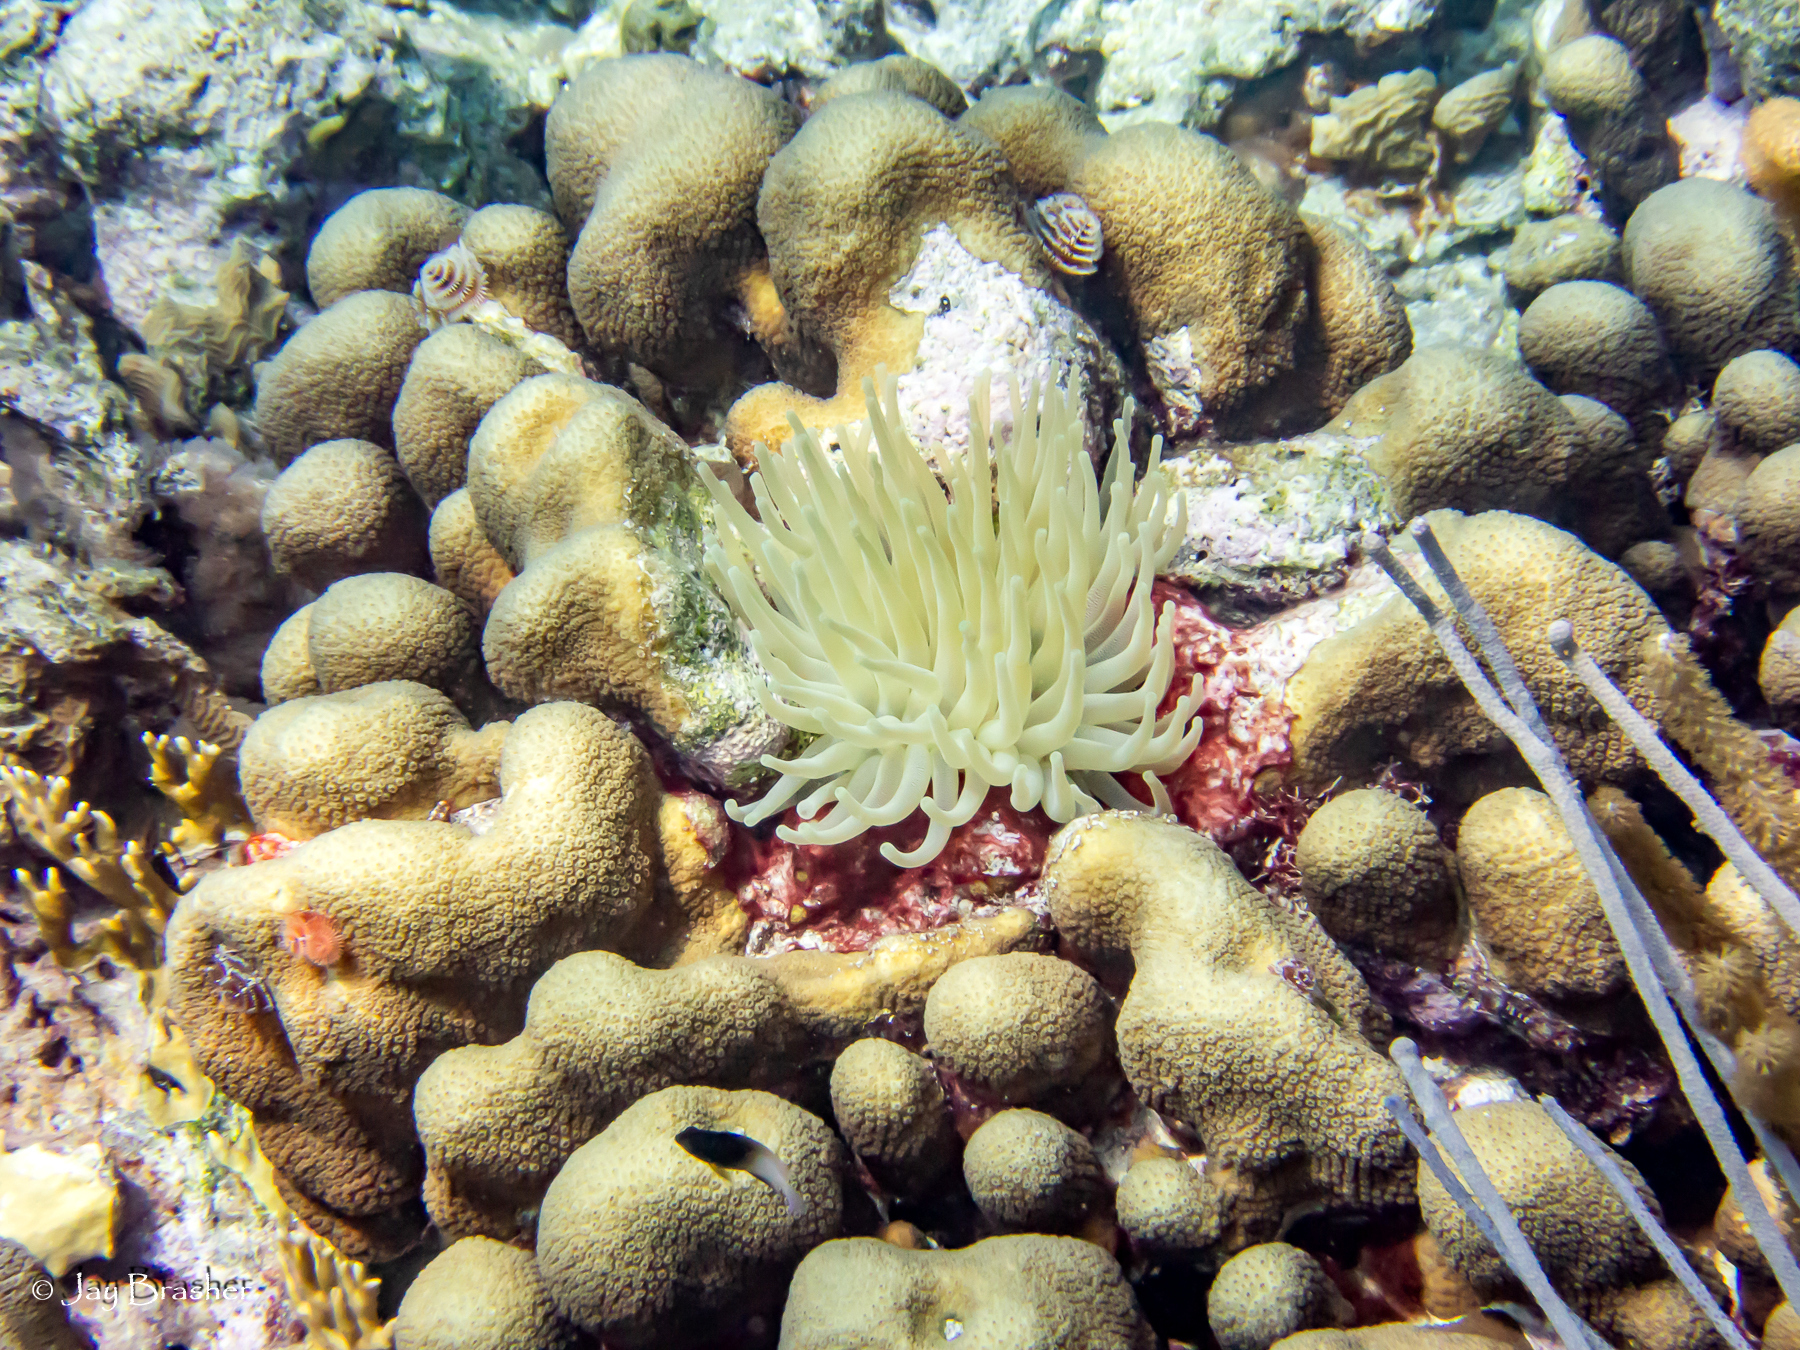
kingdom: Animalia
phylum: Cnidaria
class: Anthozoa
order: Scleractinia
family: Merulinidae
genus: Orbicella
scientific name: Orbicella annularis
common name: Boulder star coral
